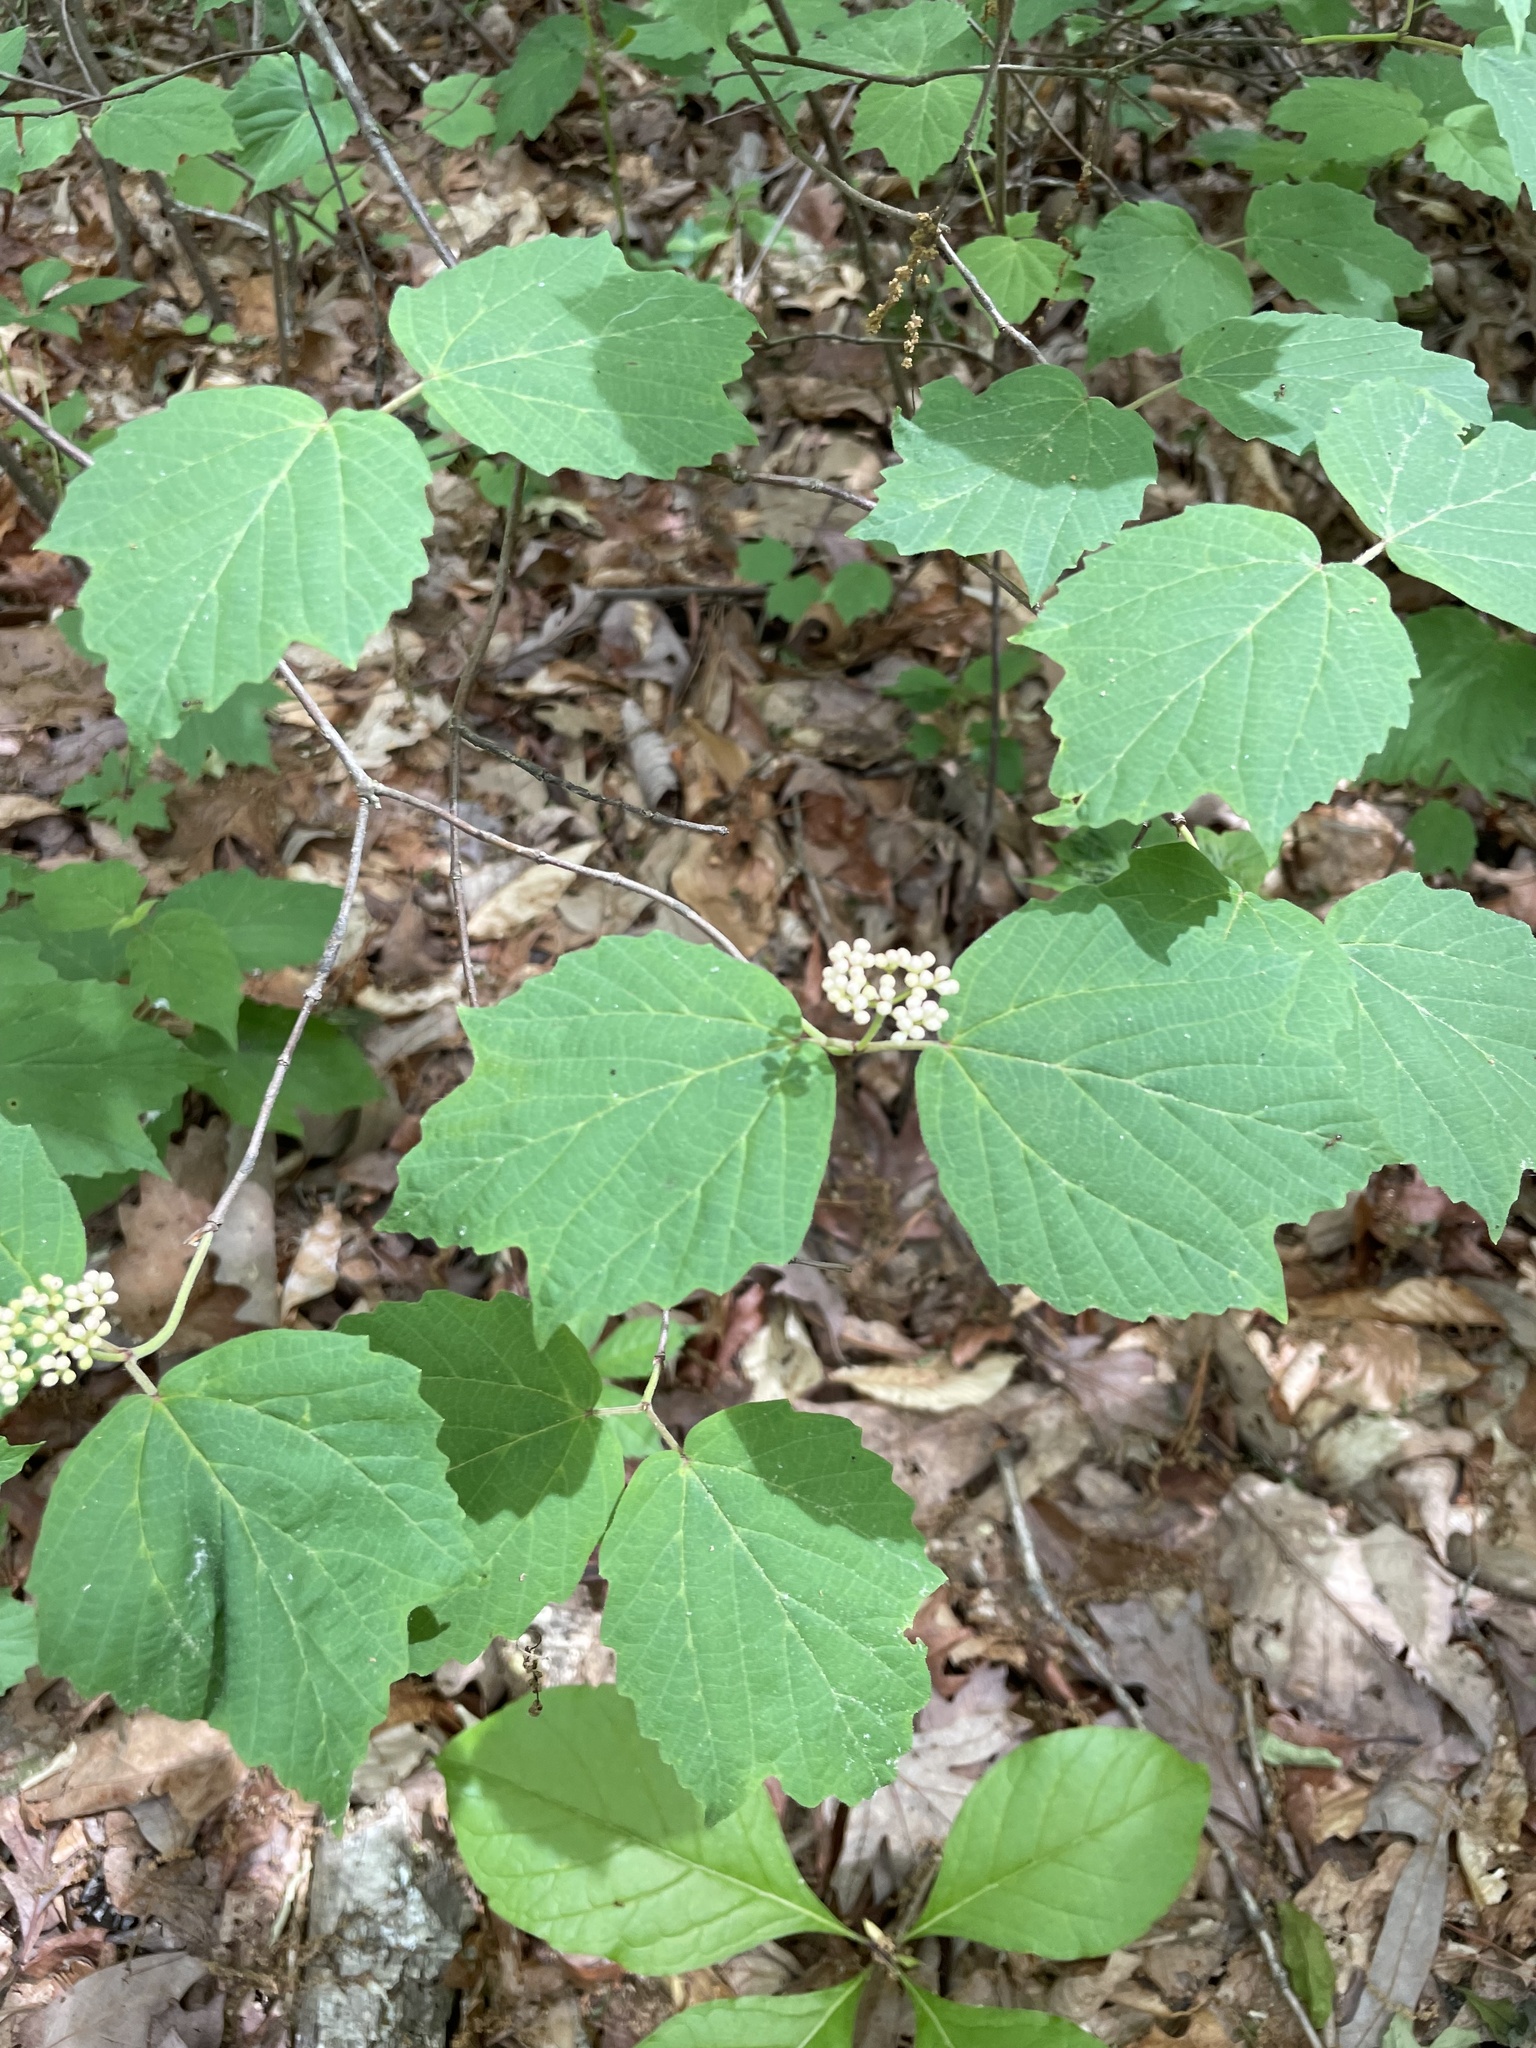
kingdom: Plantae
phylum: Tracheophyta
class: Magnoliopsida
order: Dipsacales
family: Viburnaceae
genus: Viburnum
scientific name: Viburnum acerifolium
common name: Dockmackie
